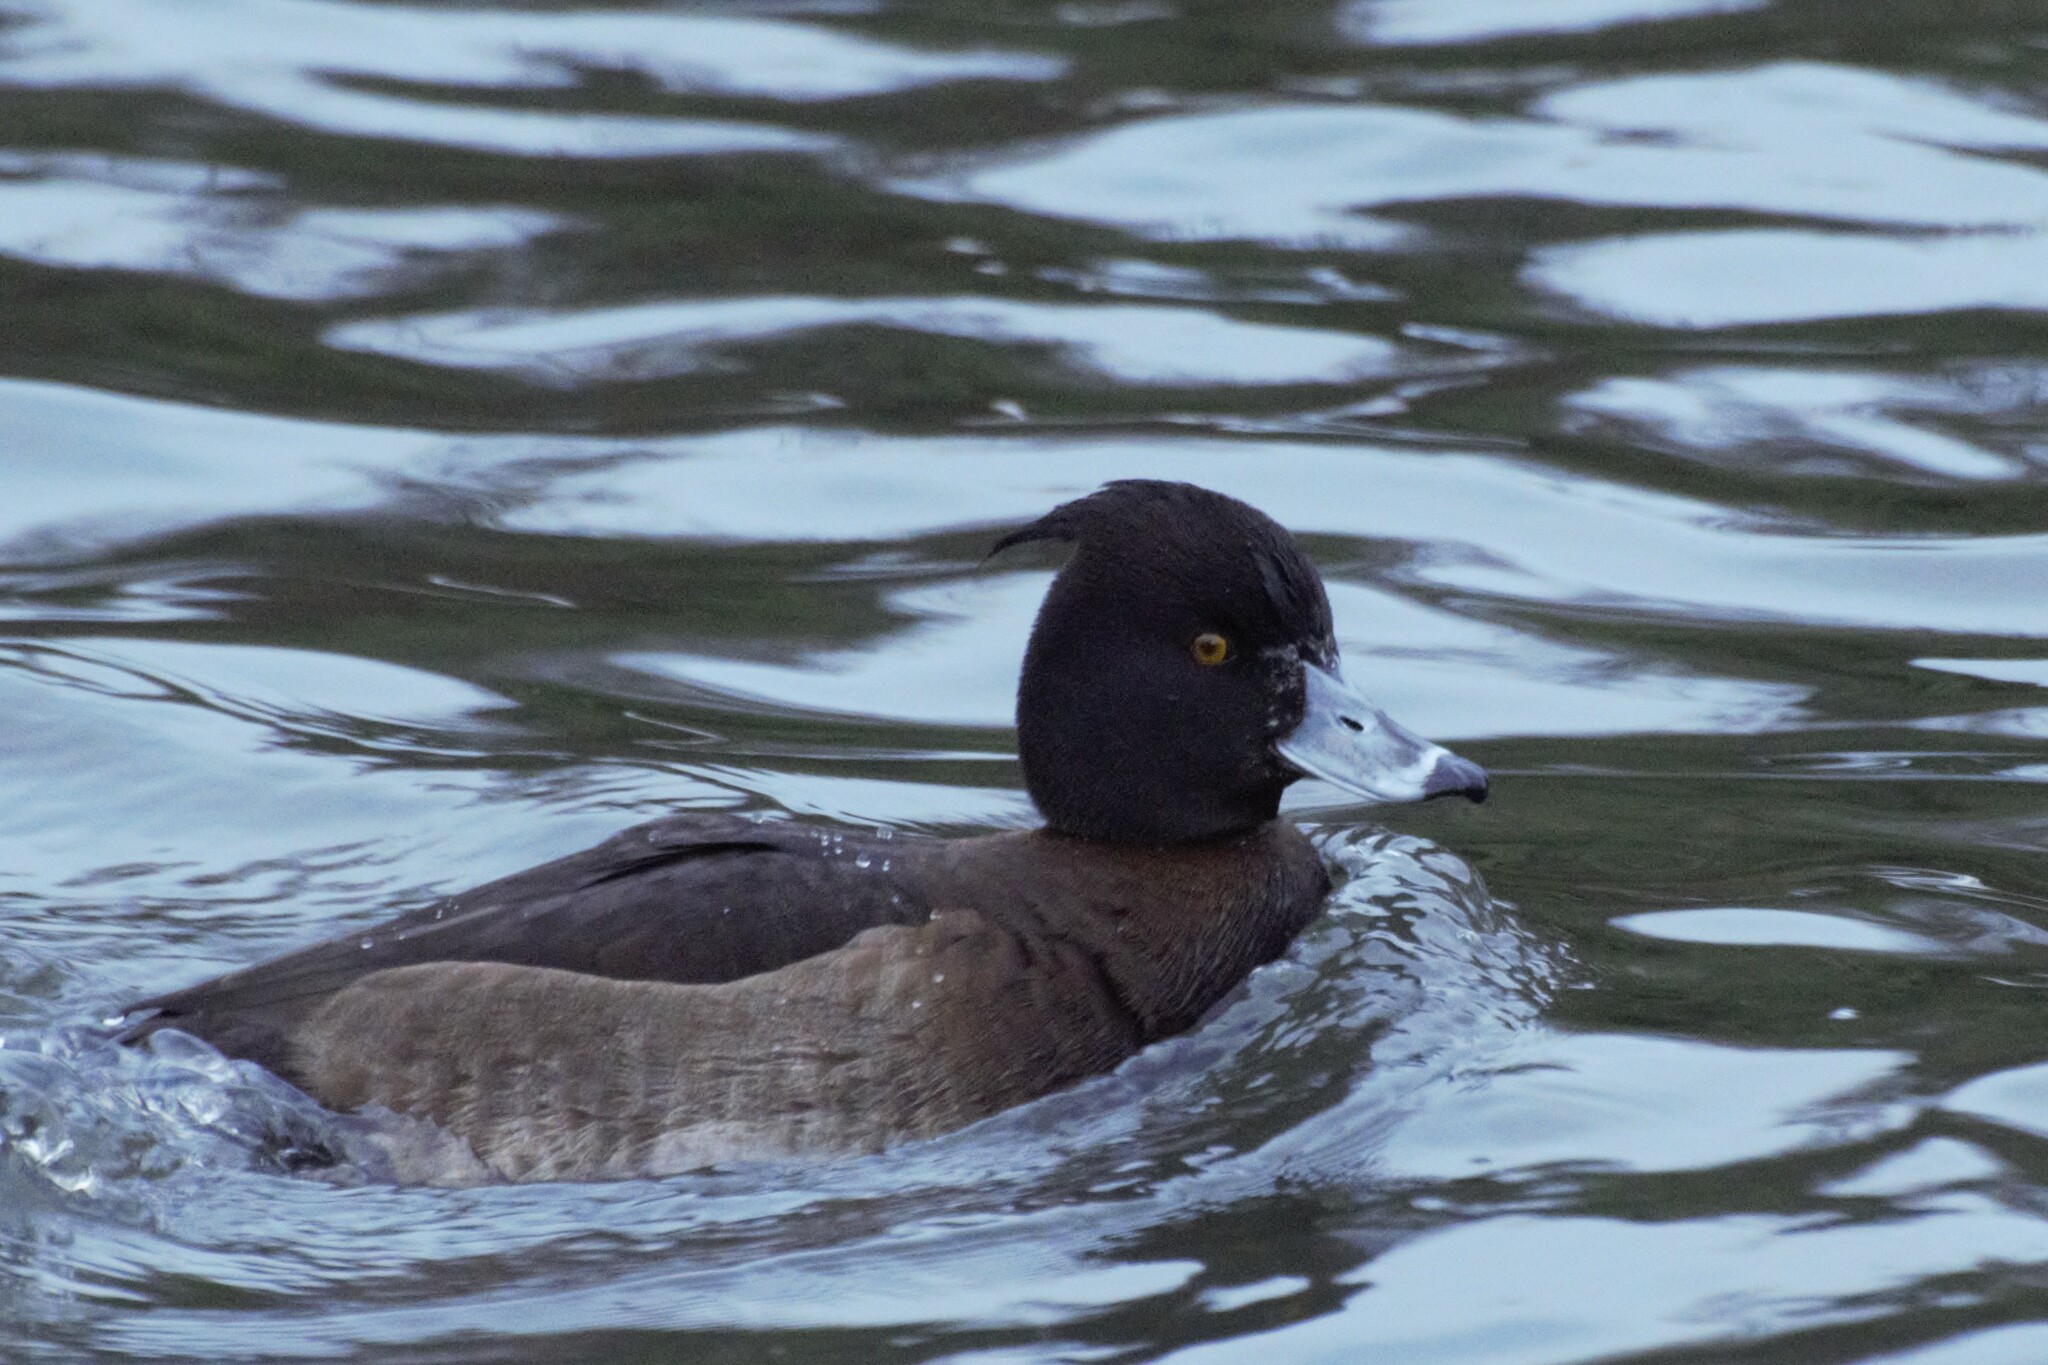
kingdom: Animalia
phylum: Chordata
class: Aves
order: Anseriformes
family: Anatidae
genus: Aythya
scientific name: Aythya fuligula
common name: Tufted duck
